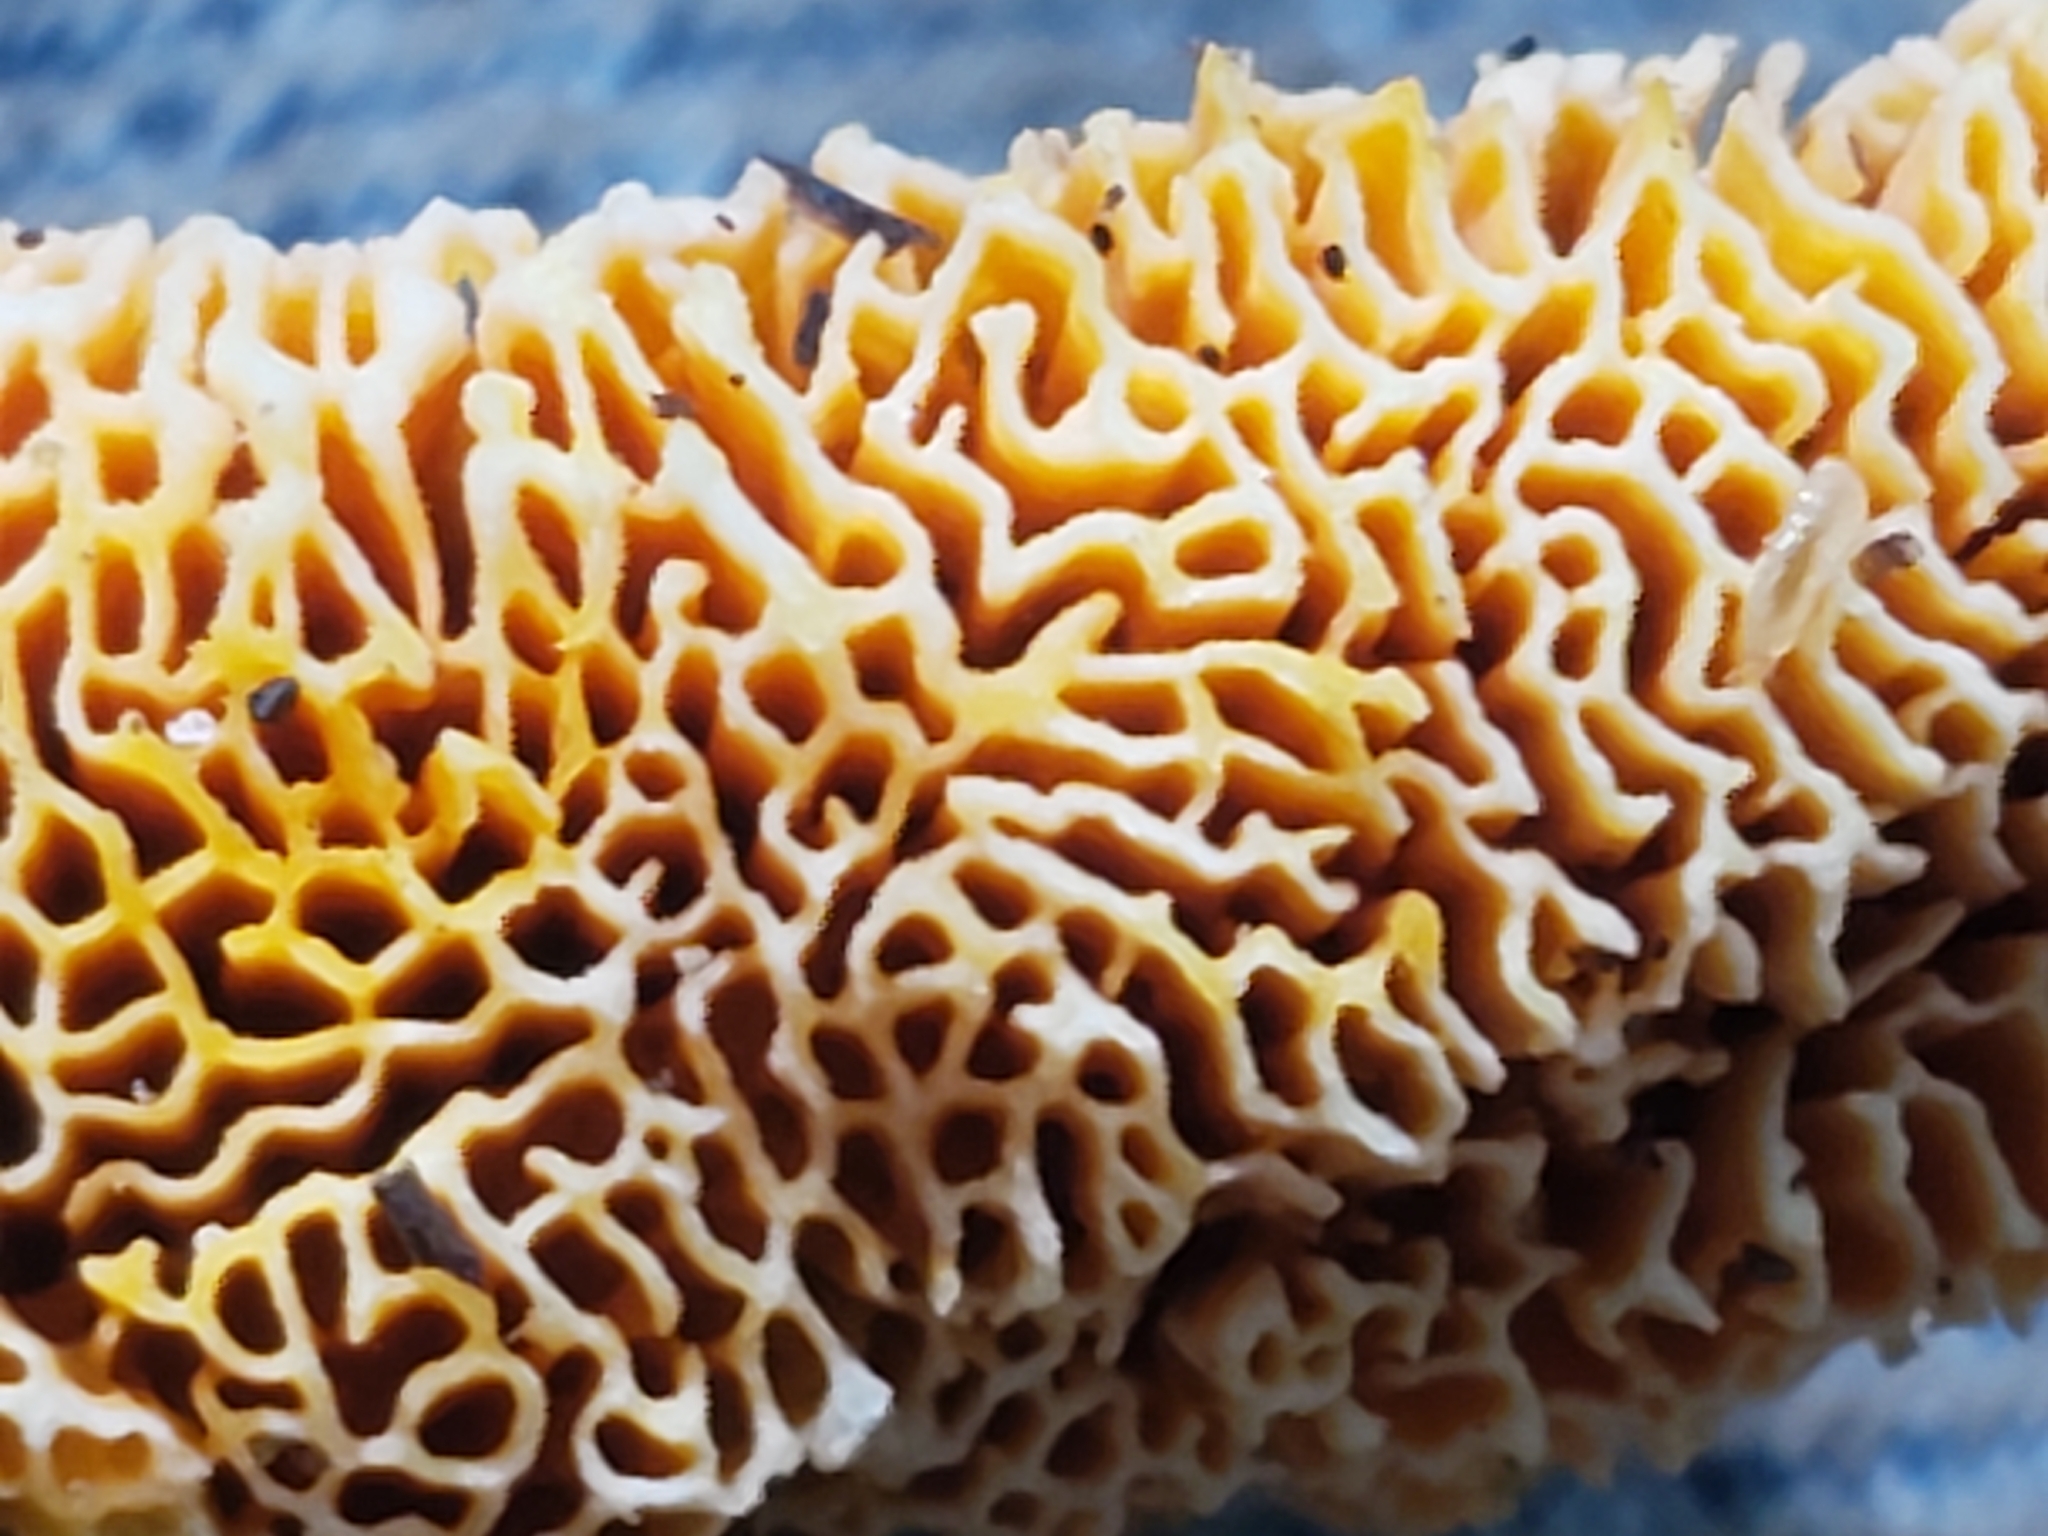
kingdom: Fungi
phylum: Basidiomycota
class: Agaricomycetes
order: Polyporales
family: Fibroporiaceae
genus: Fibroporia
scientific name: Fibroporia radiculosa
